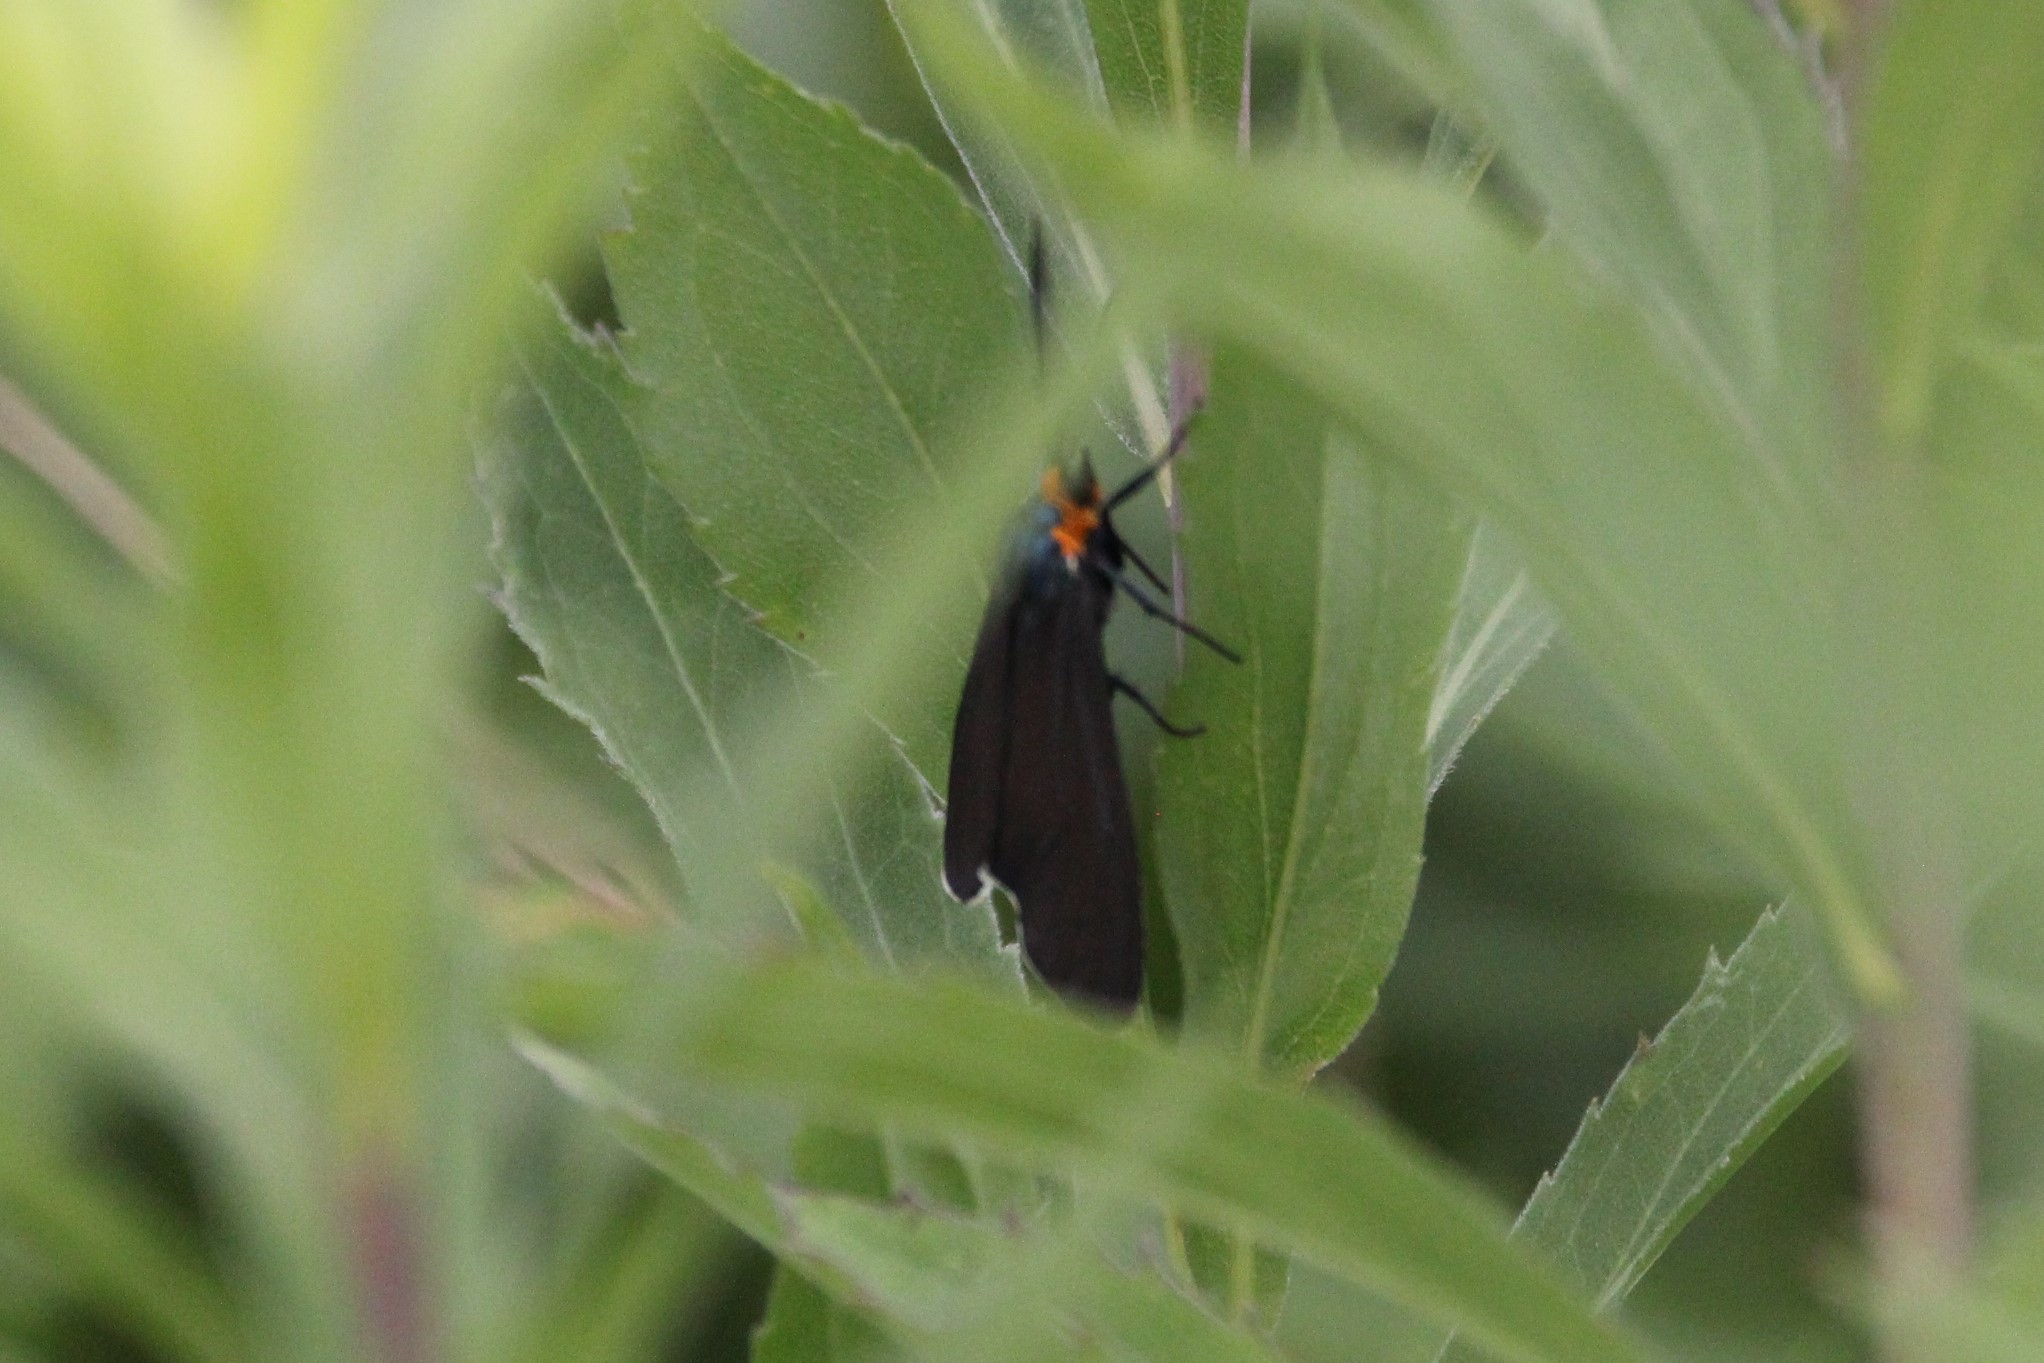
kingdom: Animalia
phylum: Arthropoda
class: Insecta
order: Lepidoptera
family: Erebidae
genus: Ctenucha
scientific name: Ctenucha virginica
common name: Virginia ctenucha moth
